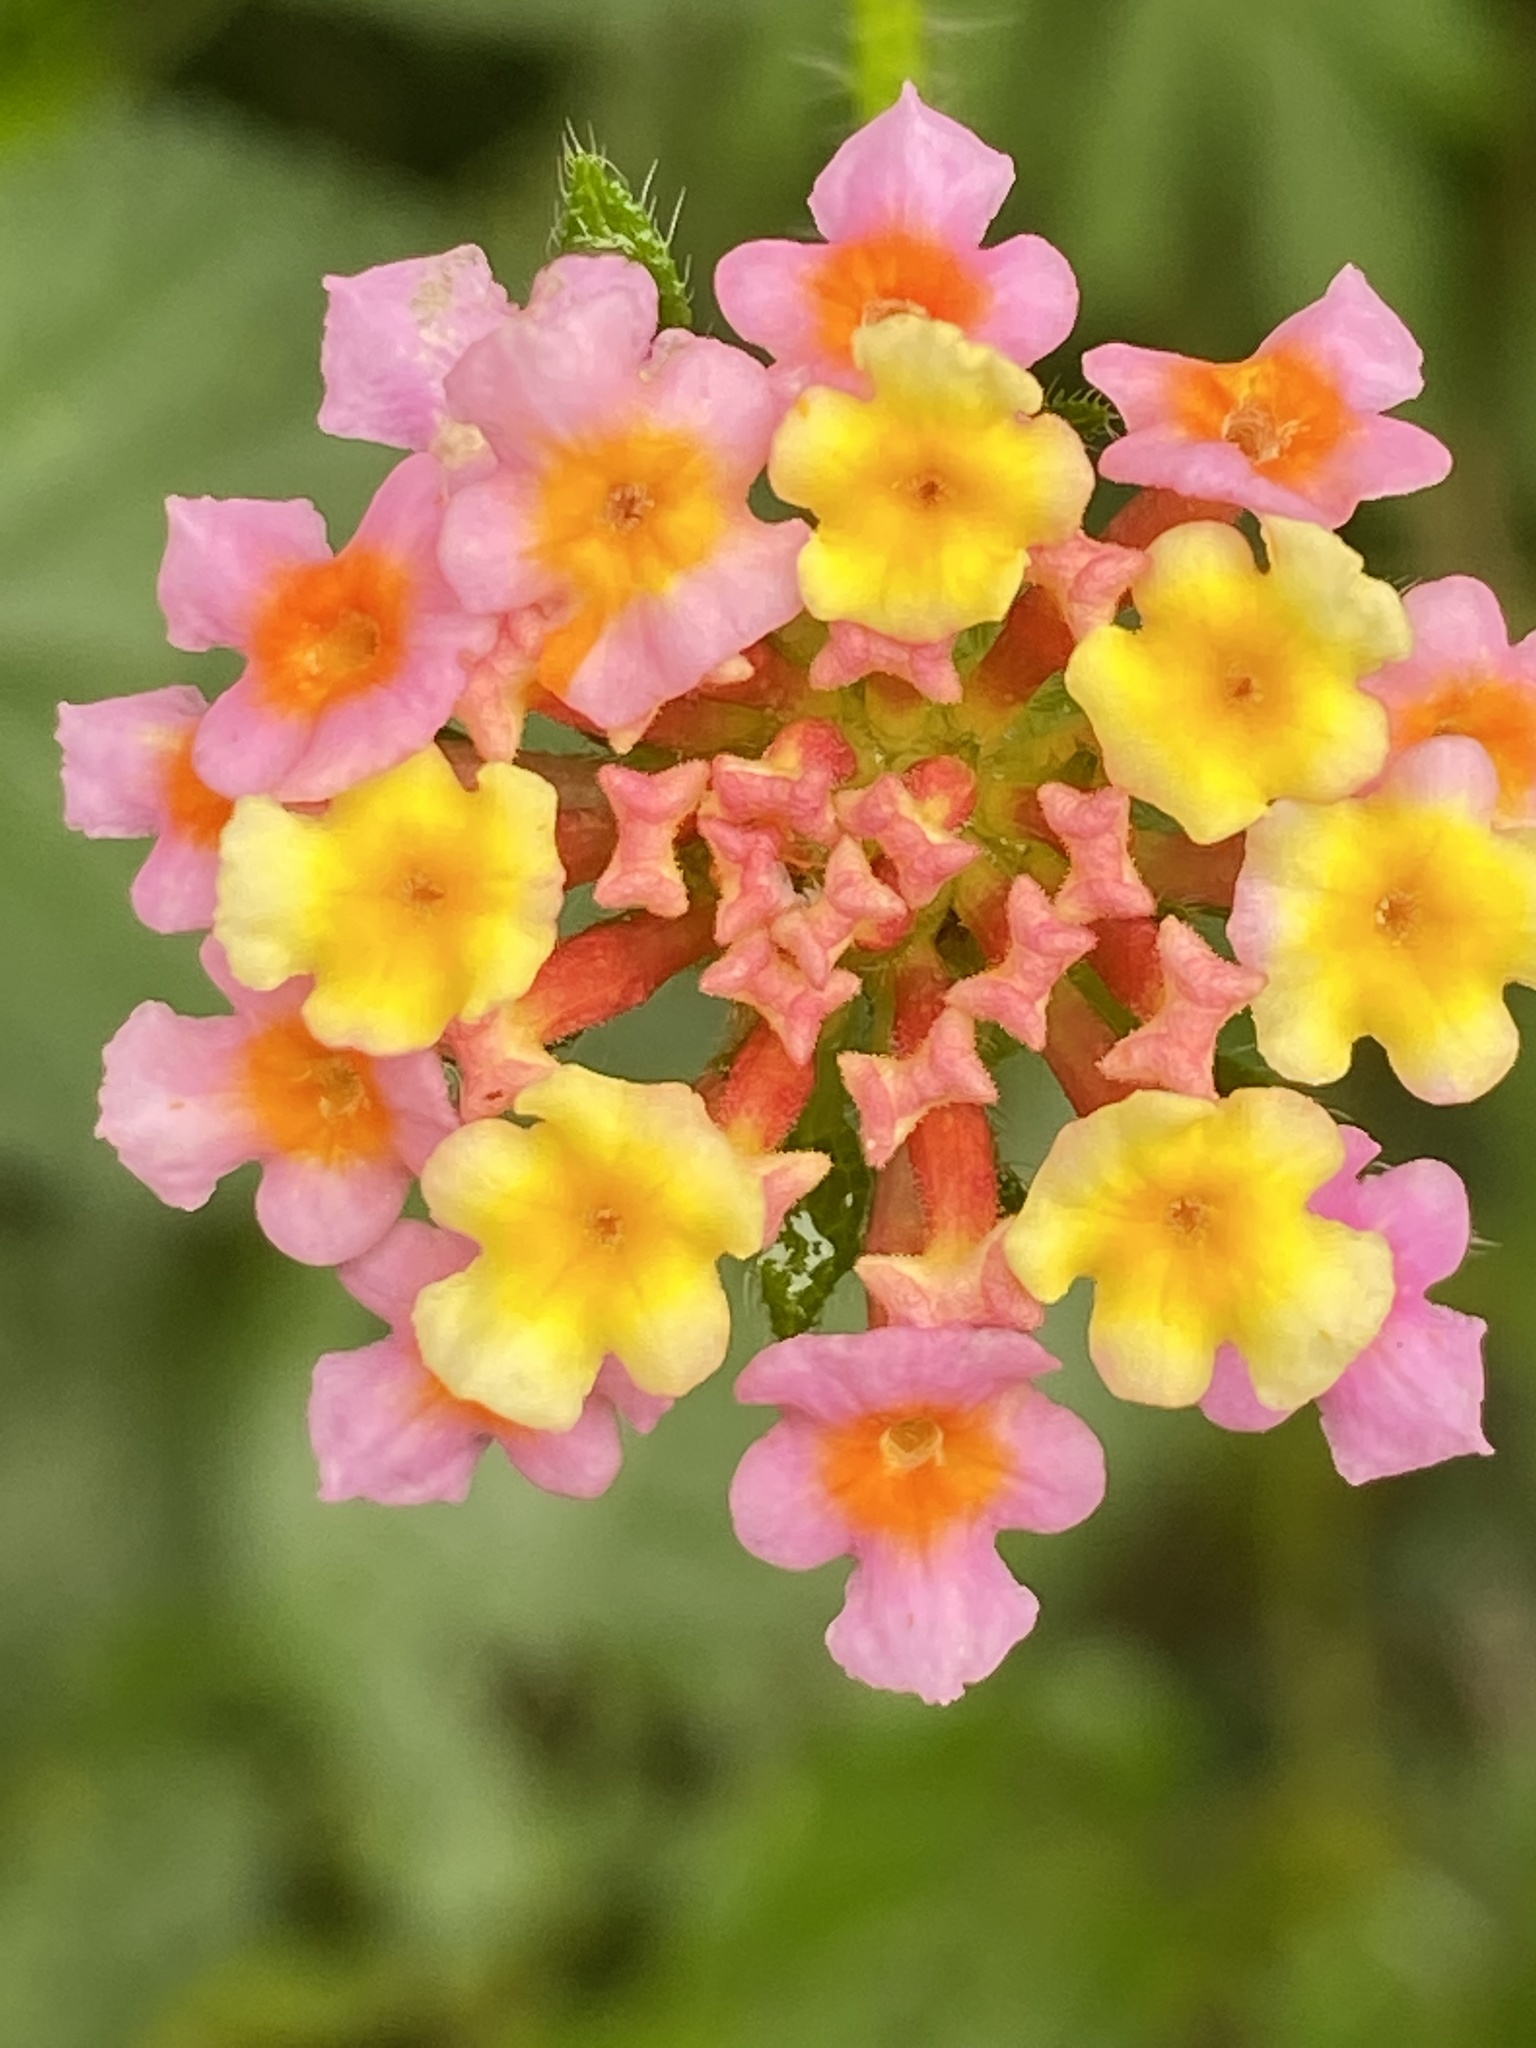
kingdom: Plantae
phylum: Tracheophyta
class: Magnoliopsida
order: Lamiales
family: Verbenaceae
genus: Lantana
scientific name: Lantana camara
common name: Lantana
